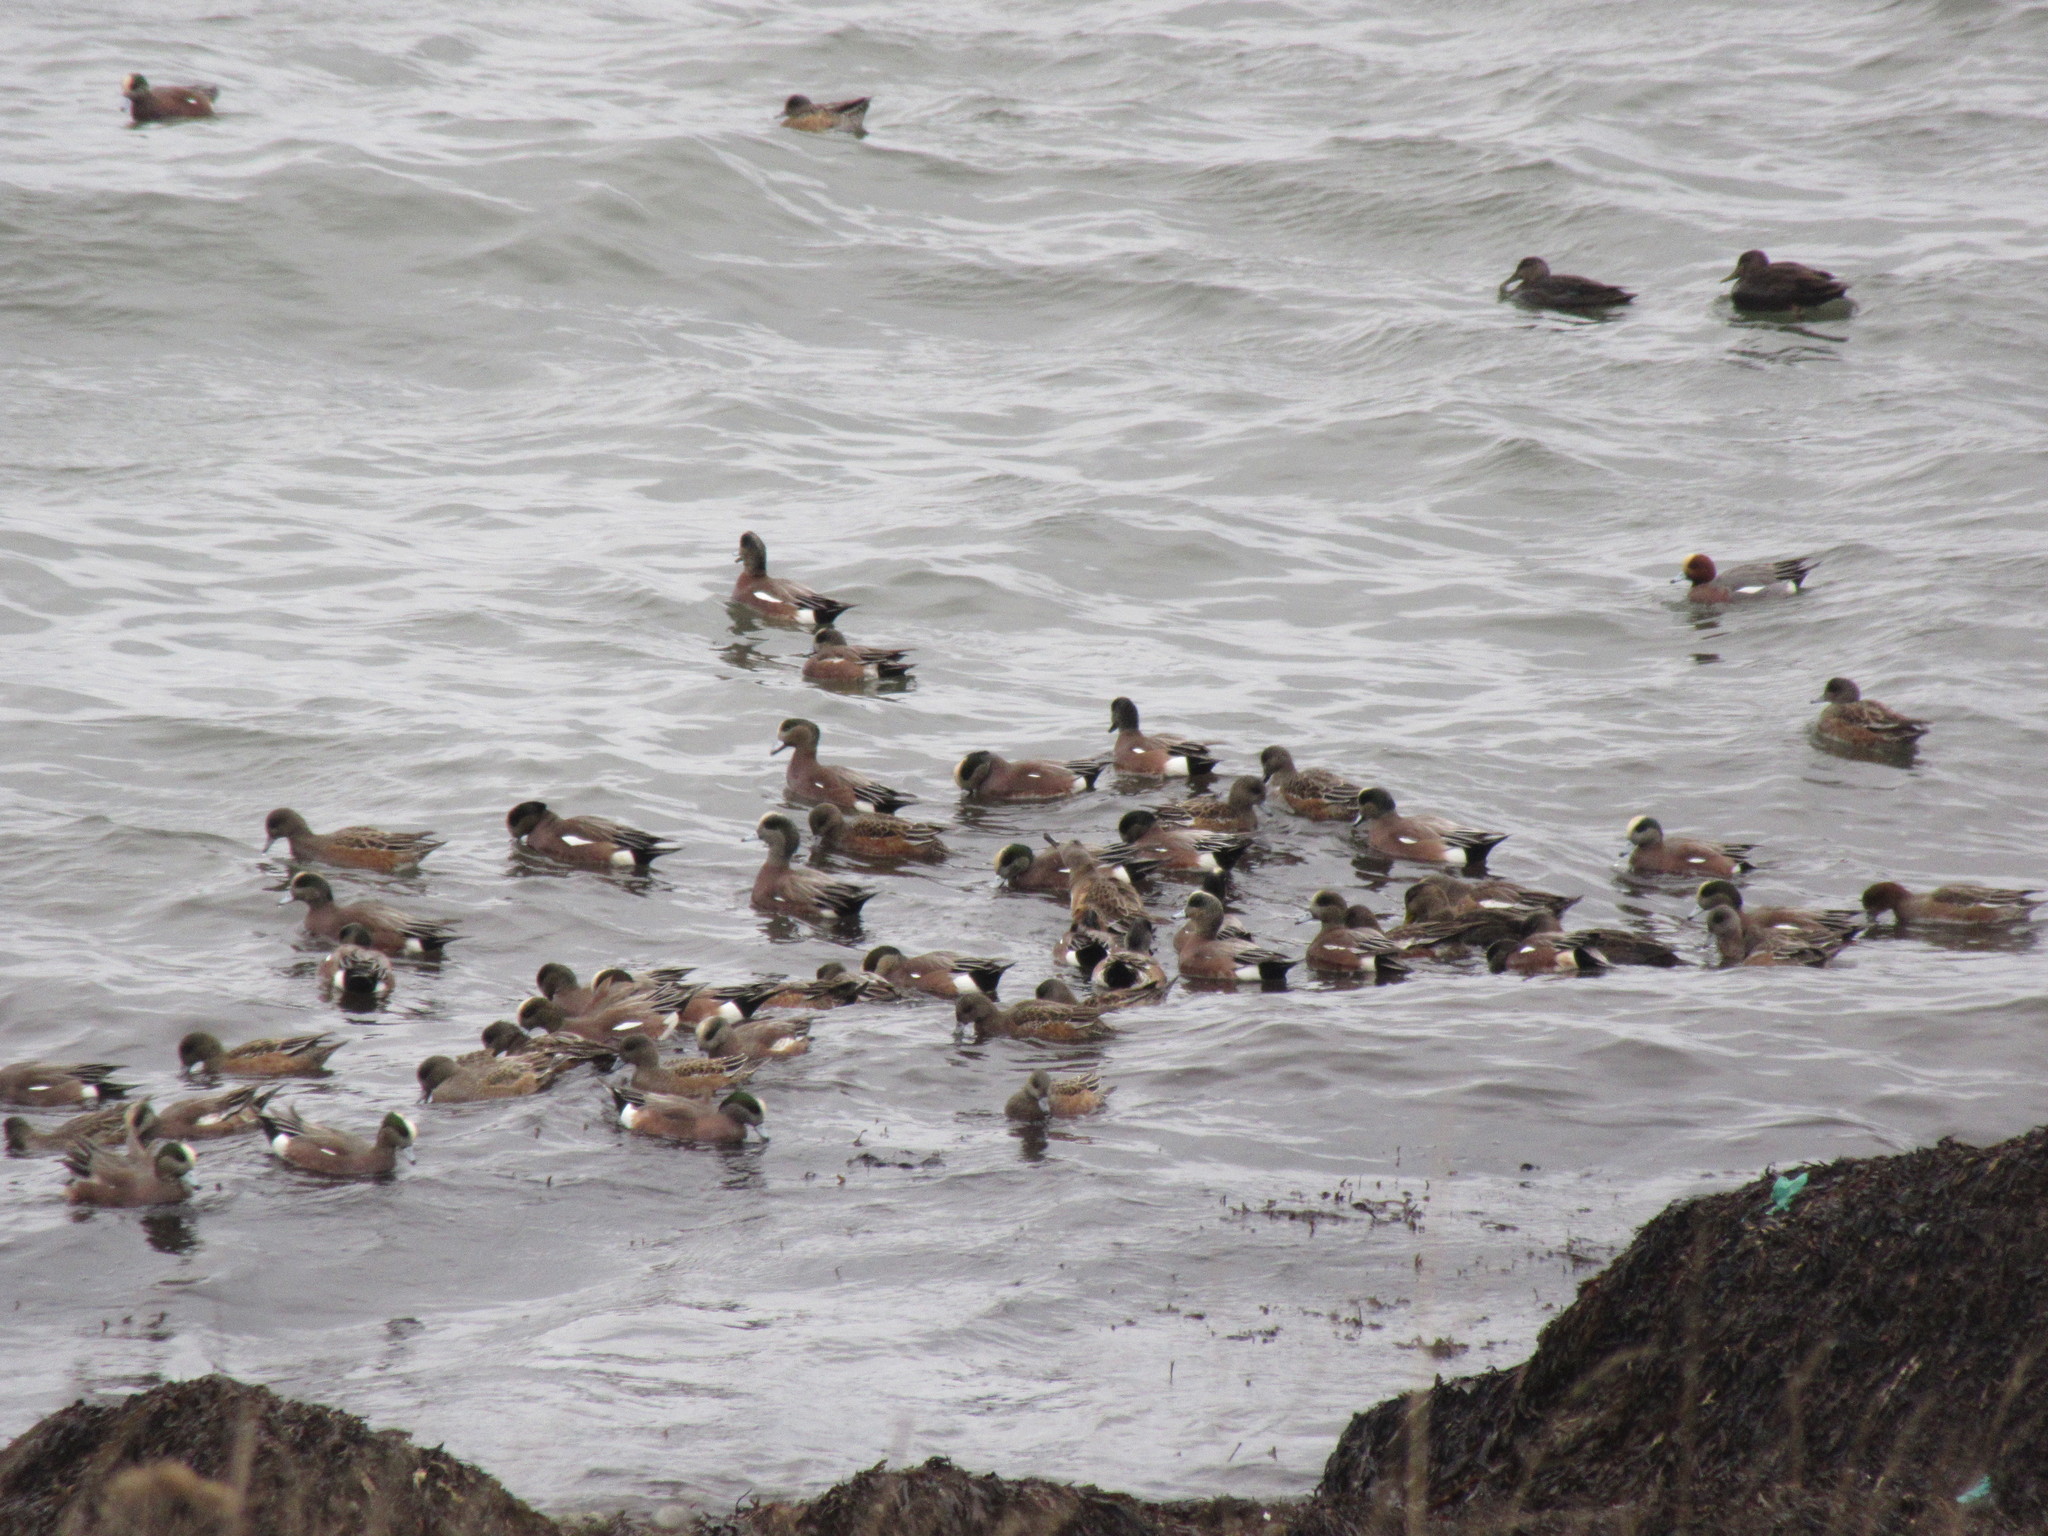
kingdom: Animalia
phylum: Chordata
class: Aves
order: Anseriformes
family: Anatidae
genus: Mareca
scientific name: Mareca americana
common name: American wigeon
